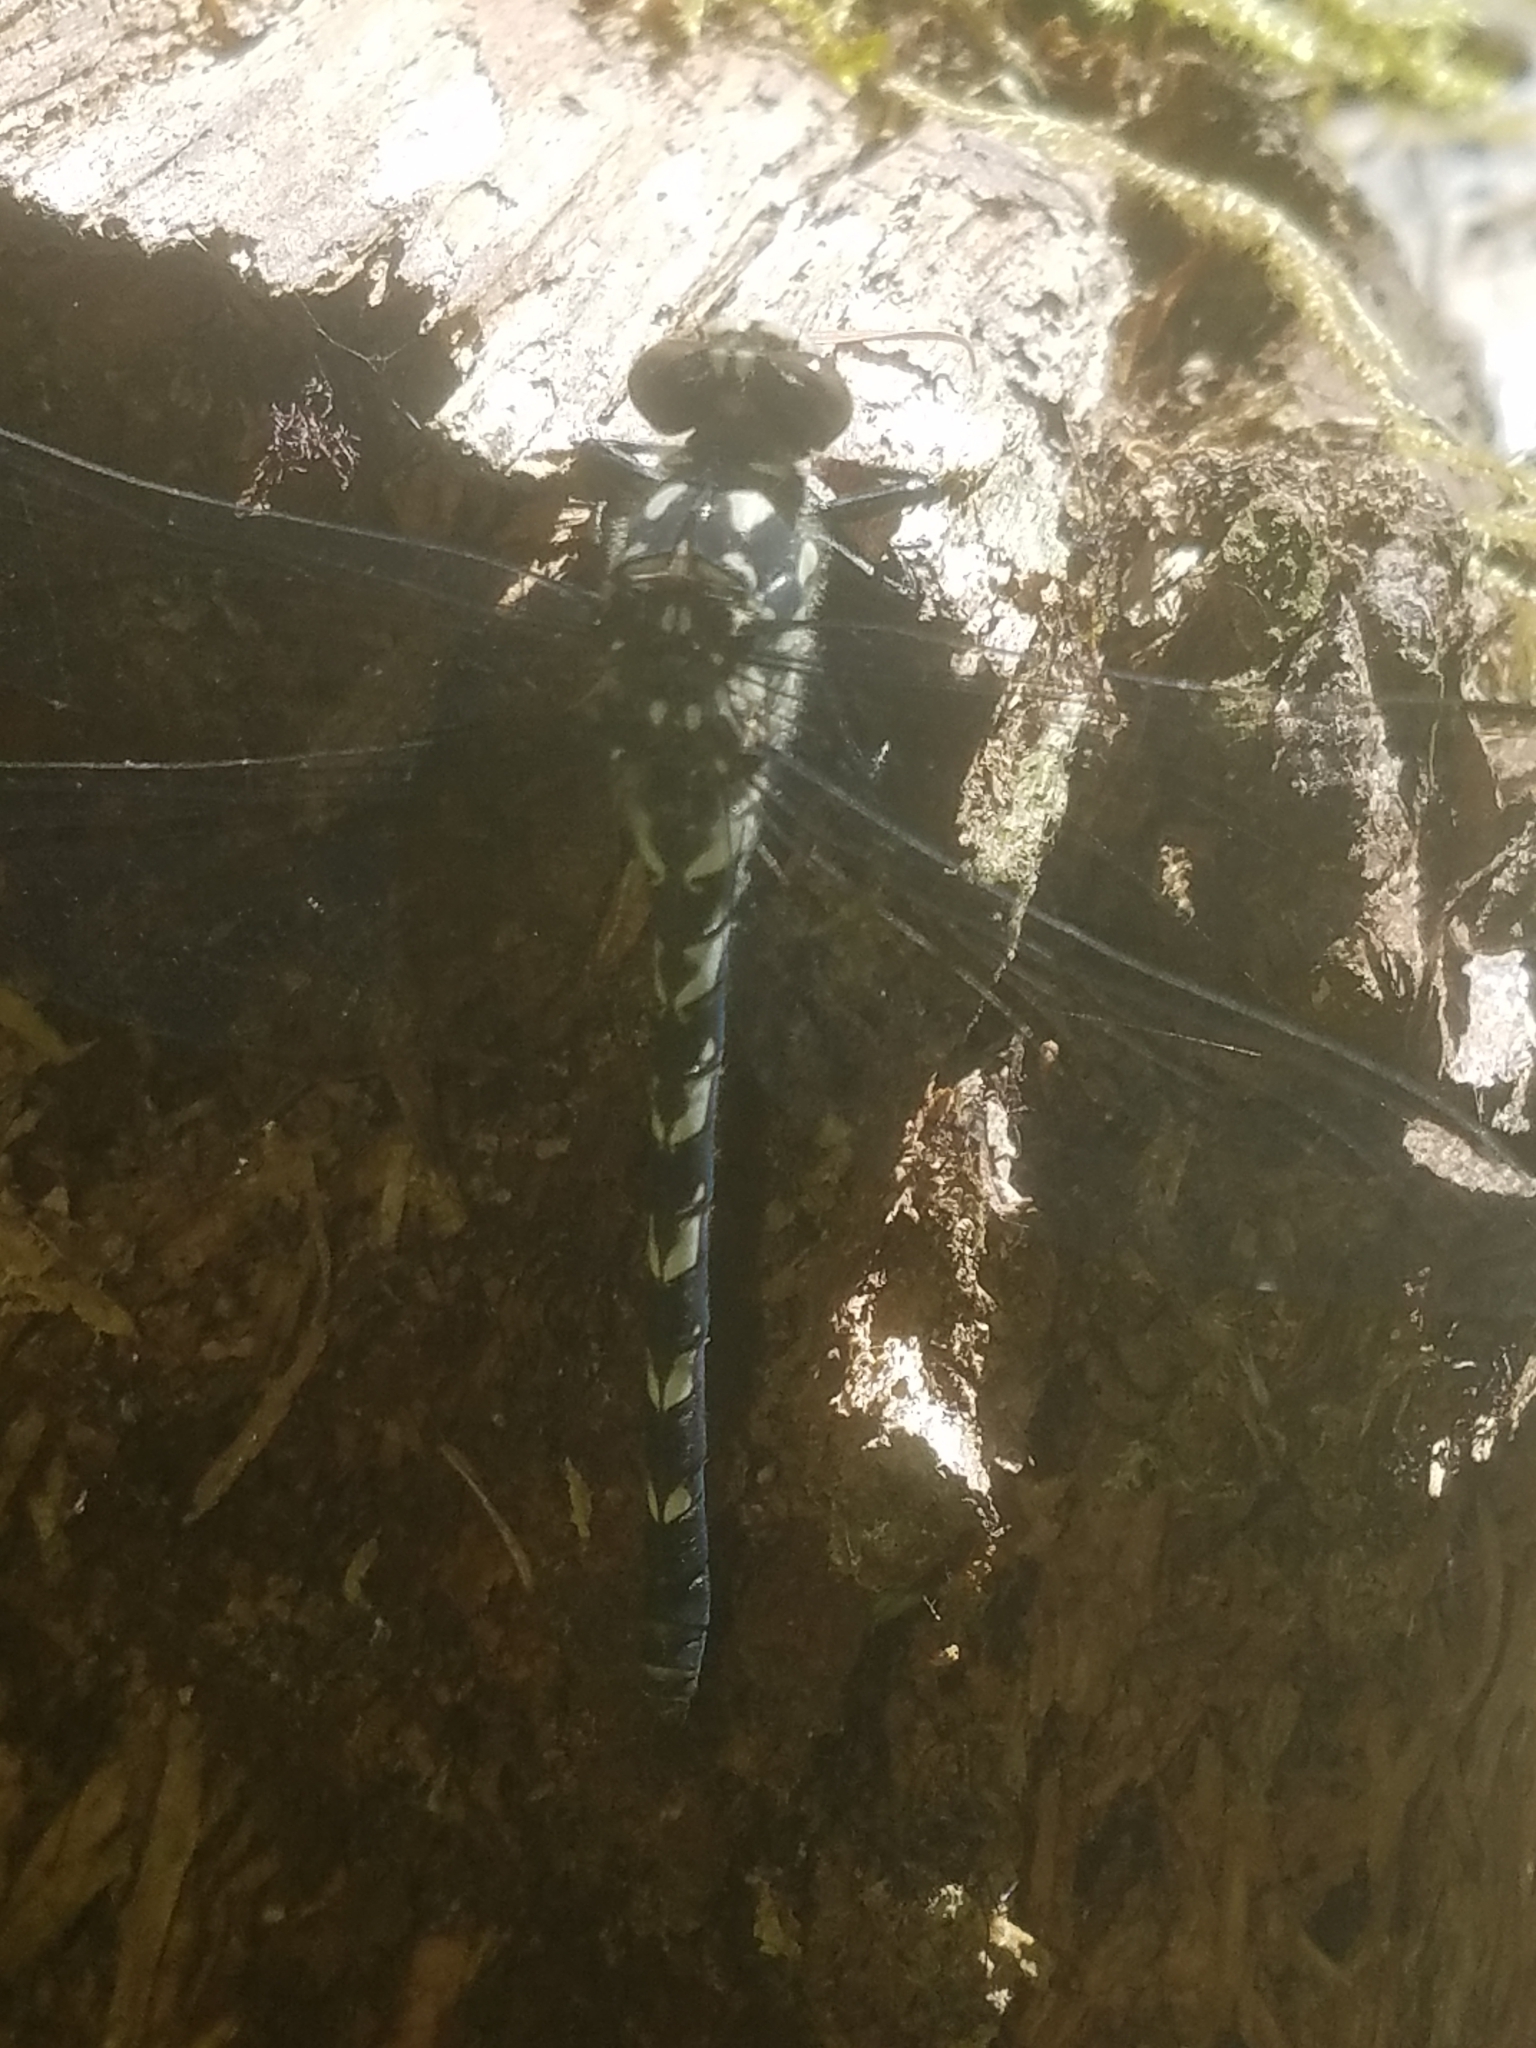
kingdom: Animalia
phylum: Arthropoda
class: Insecta
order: Odonata
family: Petaluridae
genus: Tanypteryx
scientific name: Tanypteryx hageni
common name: Black petaltail
